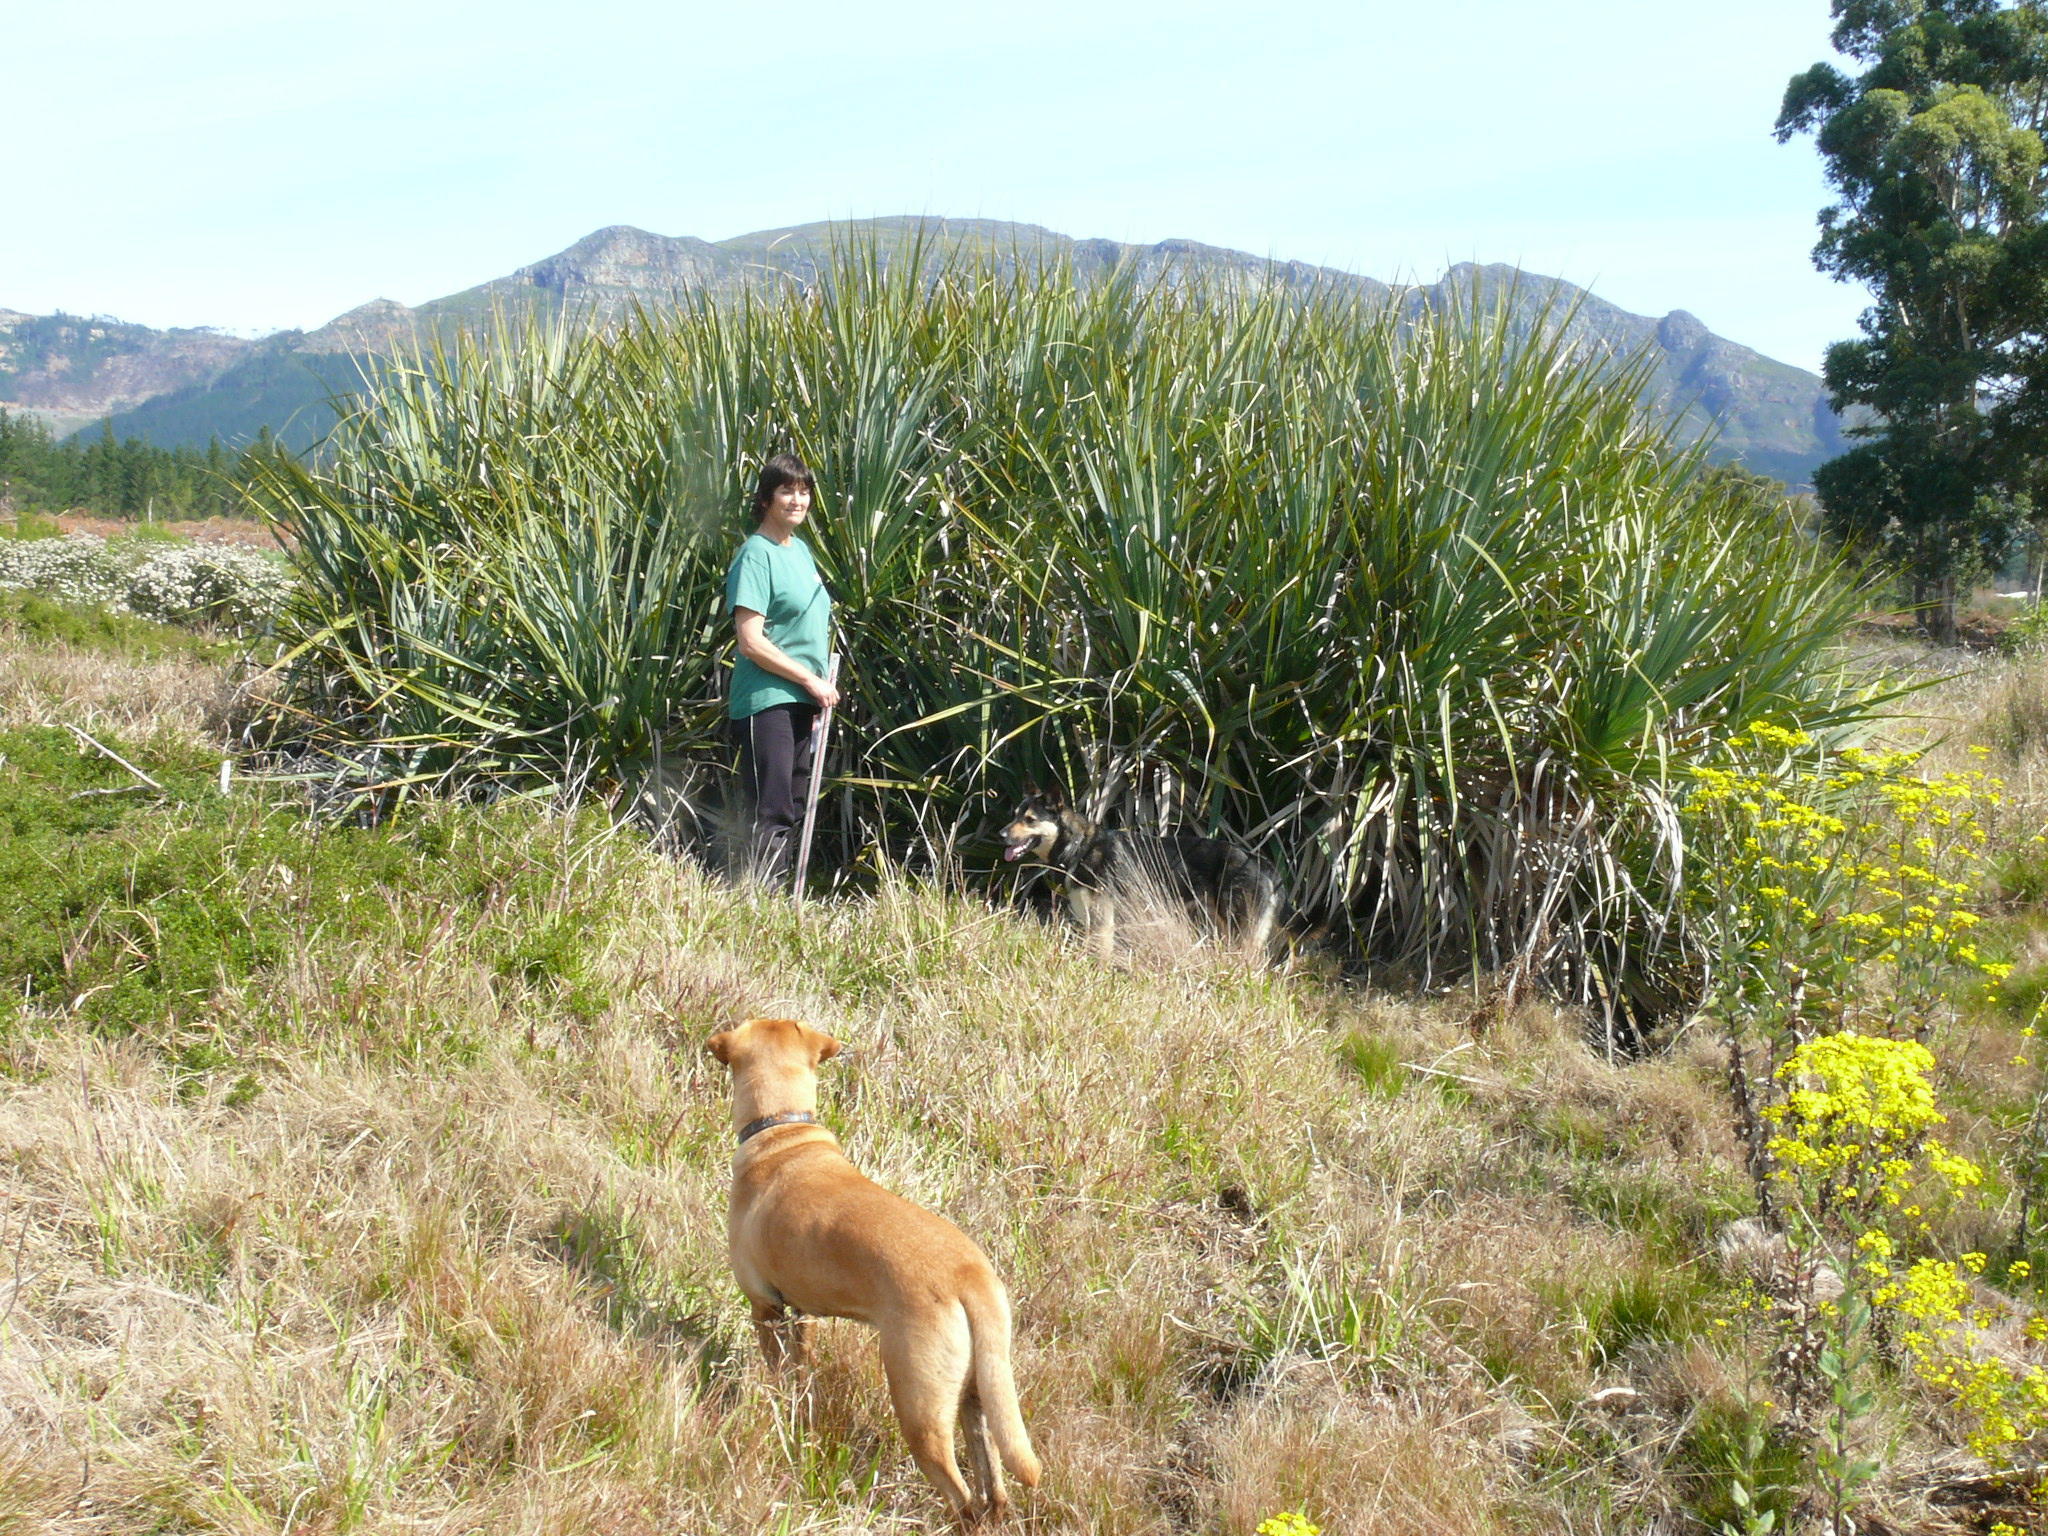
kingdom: Plantae
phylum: Tracheophyta
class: Liliopsida
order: Poales
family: Thurniaceae
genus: Prionium
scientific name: Prionium serratum
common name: Palmiet
